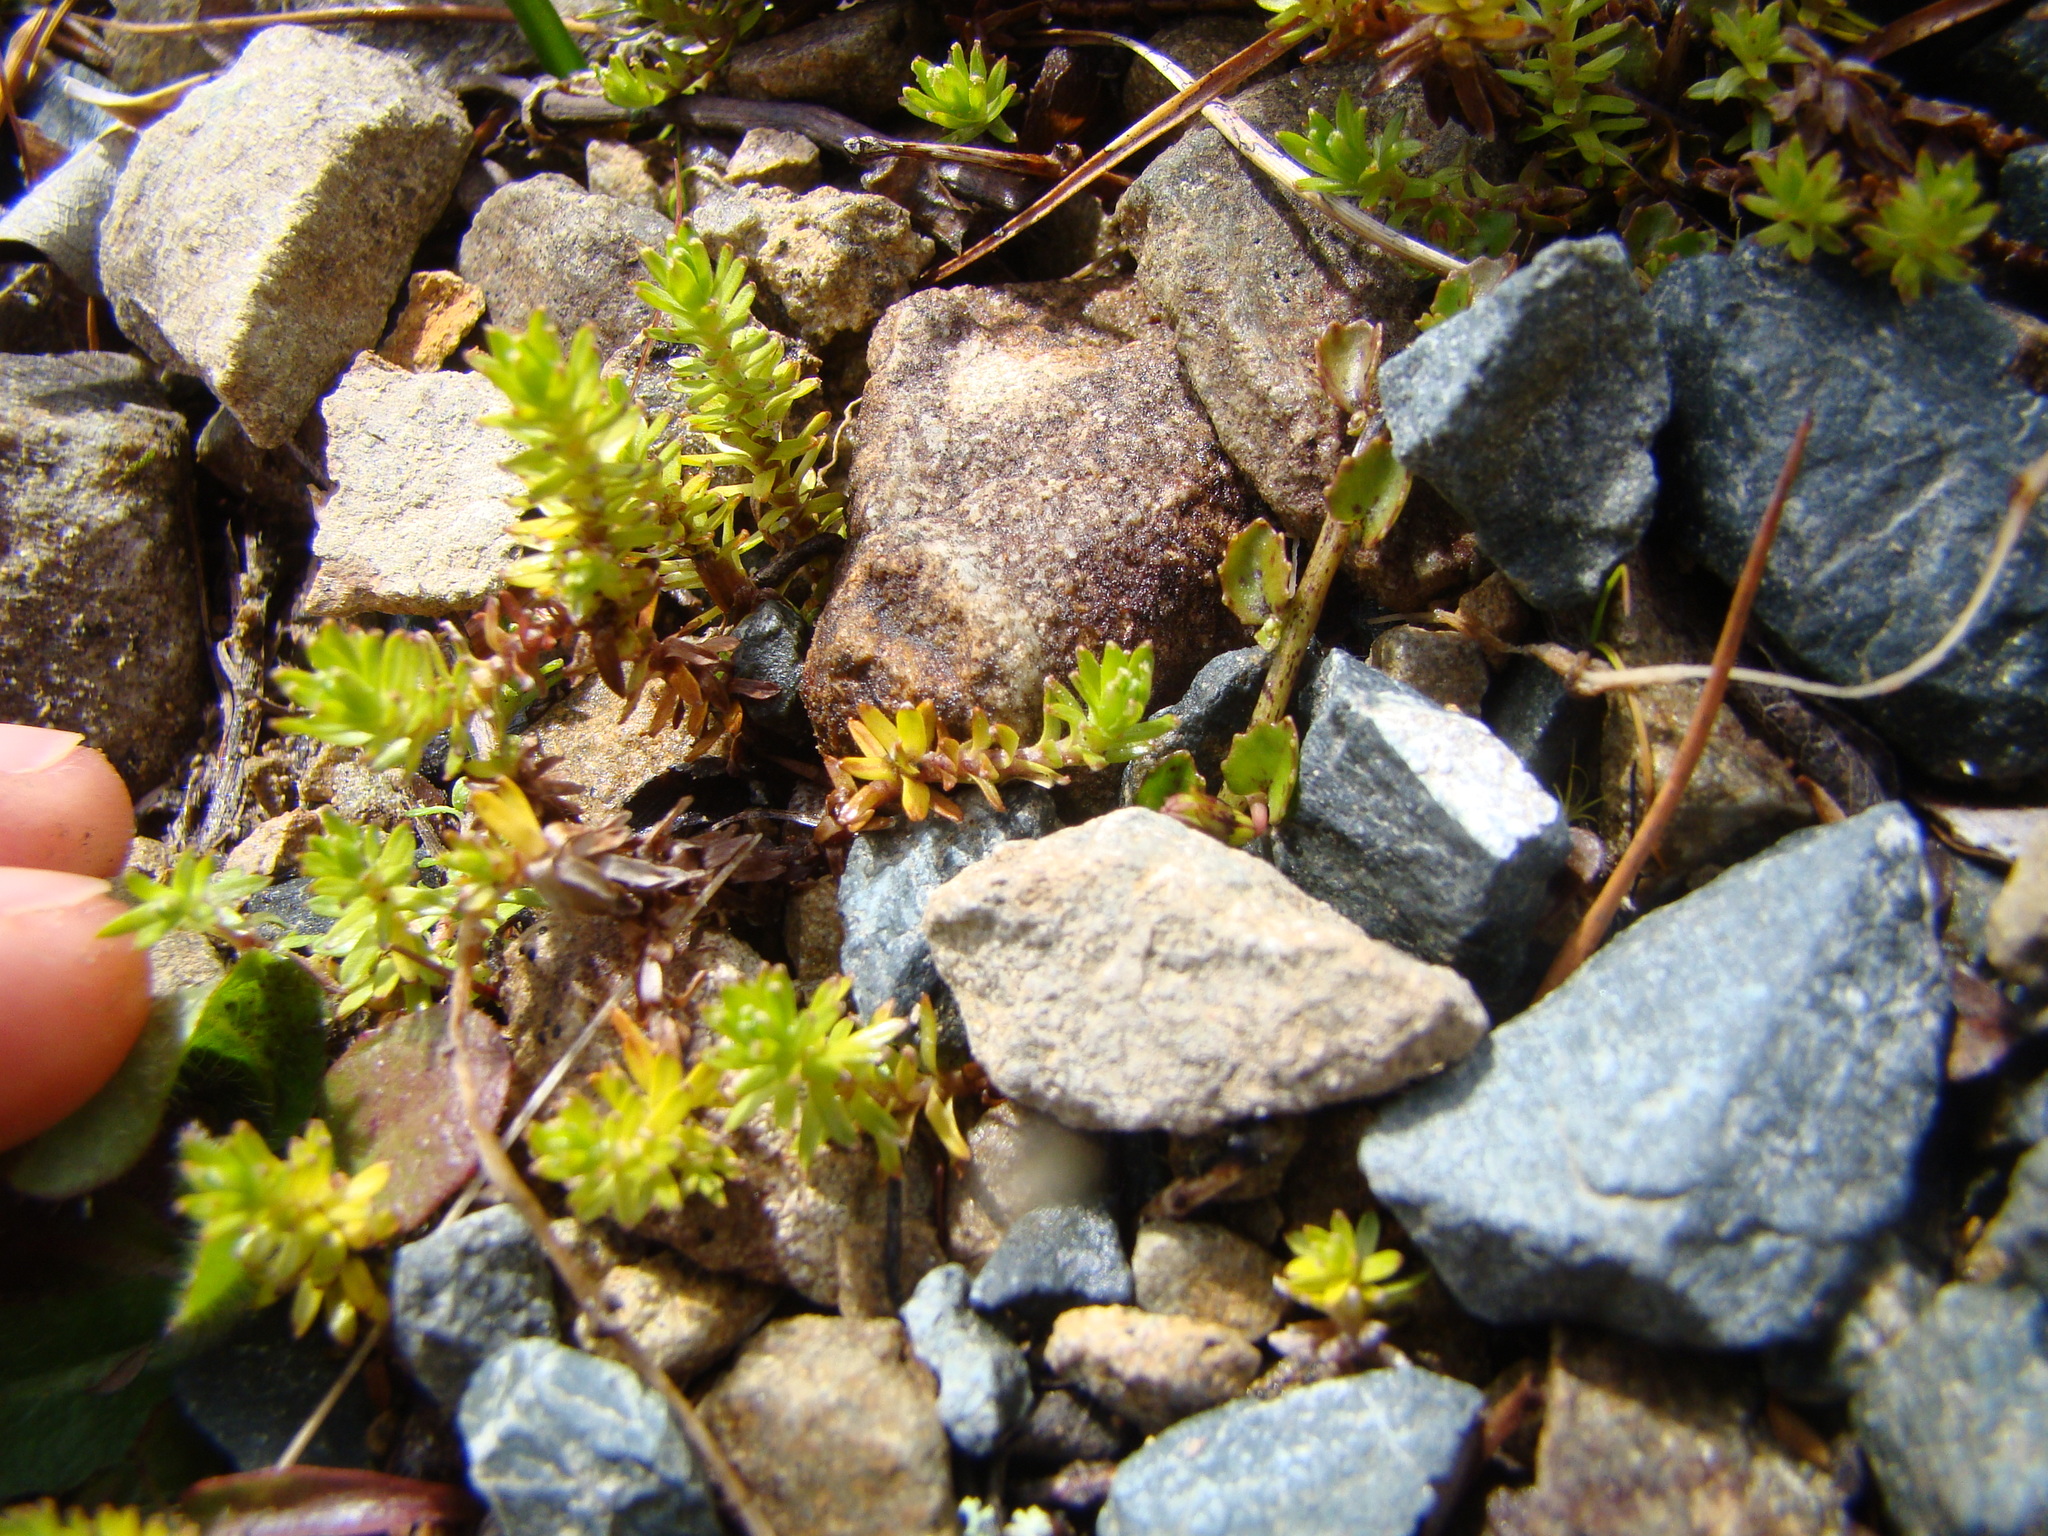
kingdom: Plantae
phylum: Tracheophyta
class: Magnoliopsida
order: Asterales
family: Asteraceae
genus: Raoulia
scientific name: Raoulia glabra
